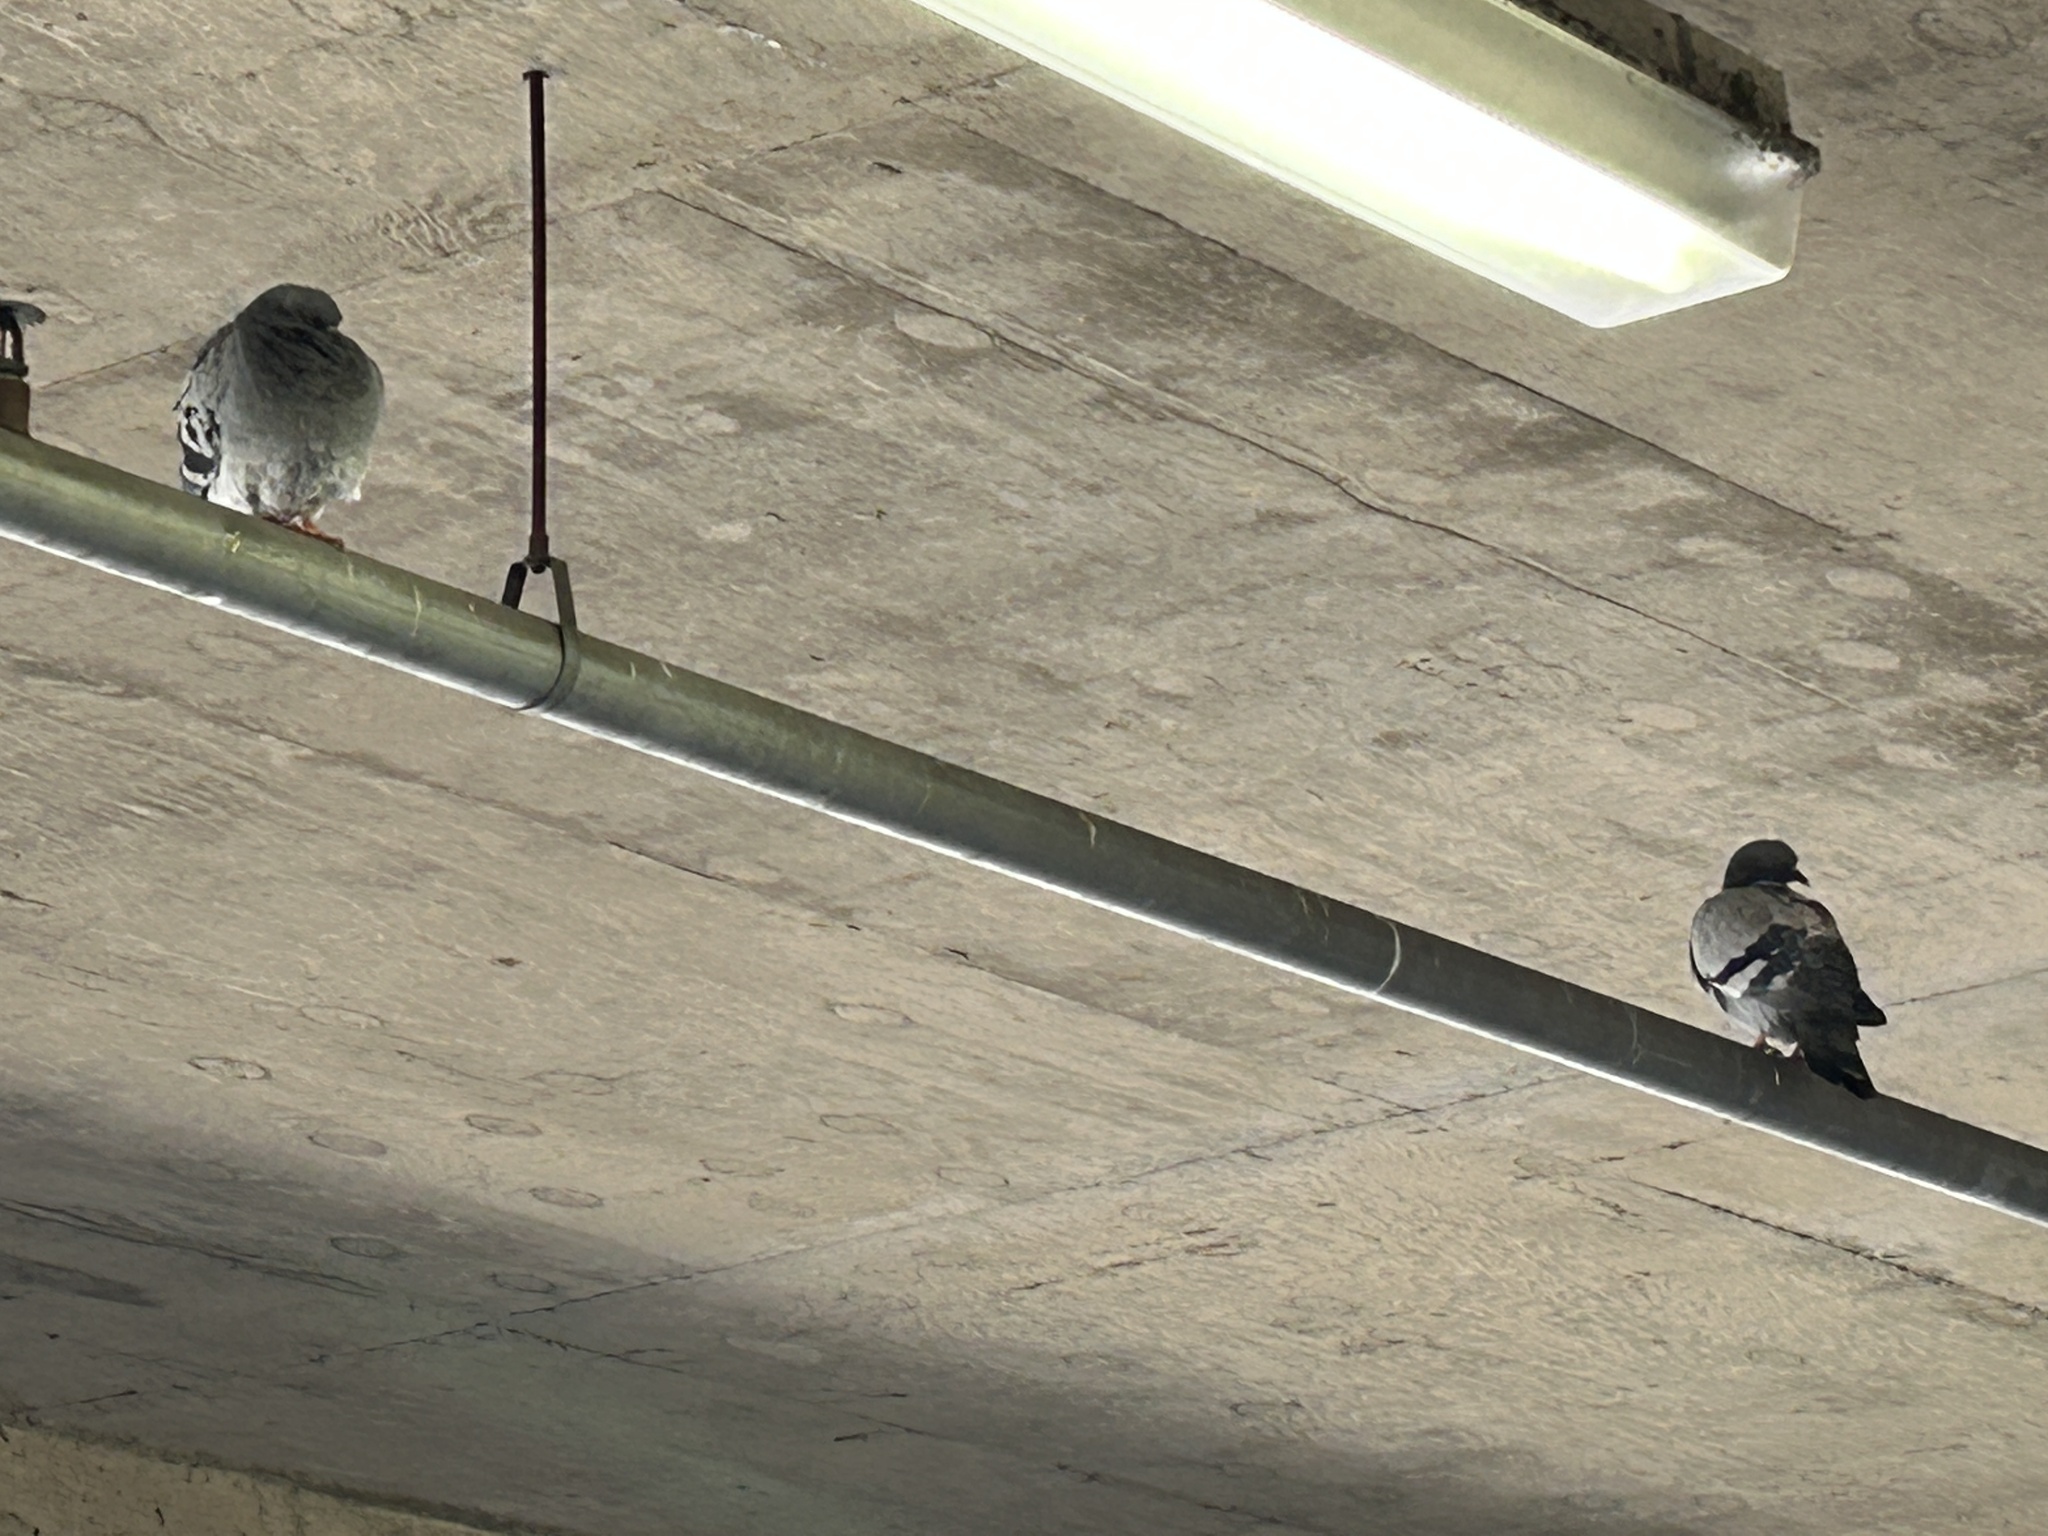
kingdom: Animalia
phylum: Chordata
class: Aves
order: Columbiformes
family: Columbidae
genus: Columba
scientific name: Columba livia
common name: Rock pigeon
